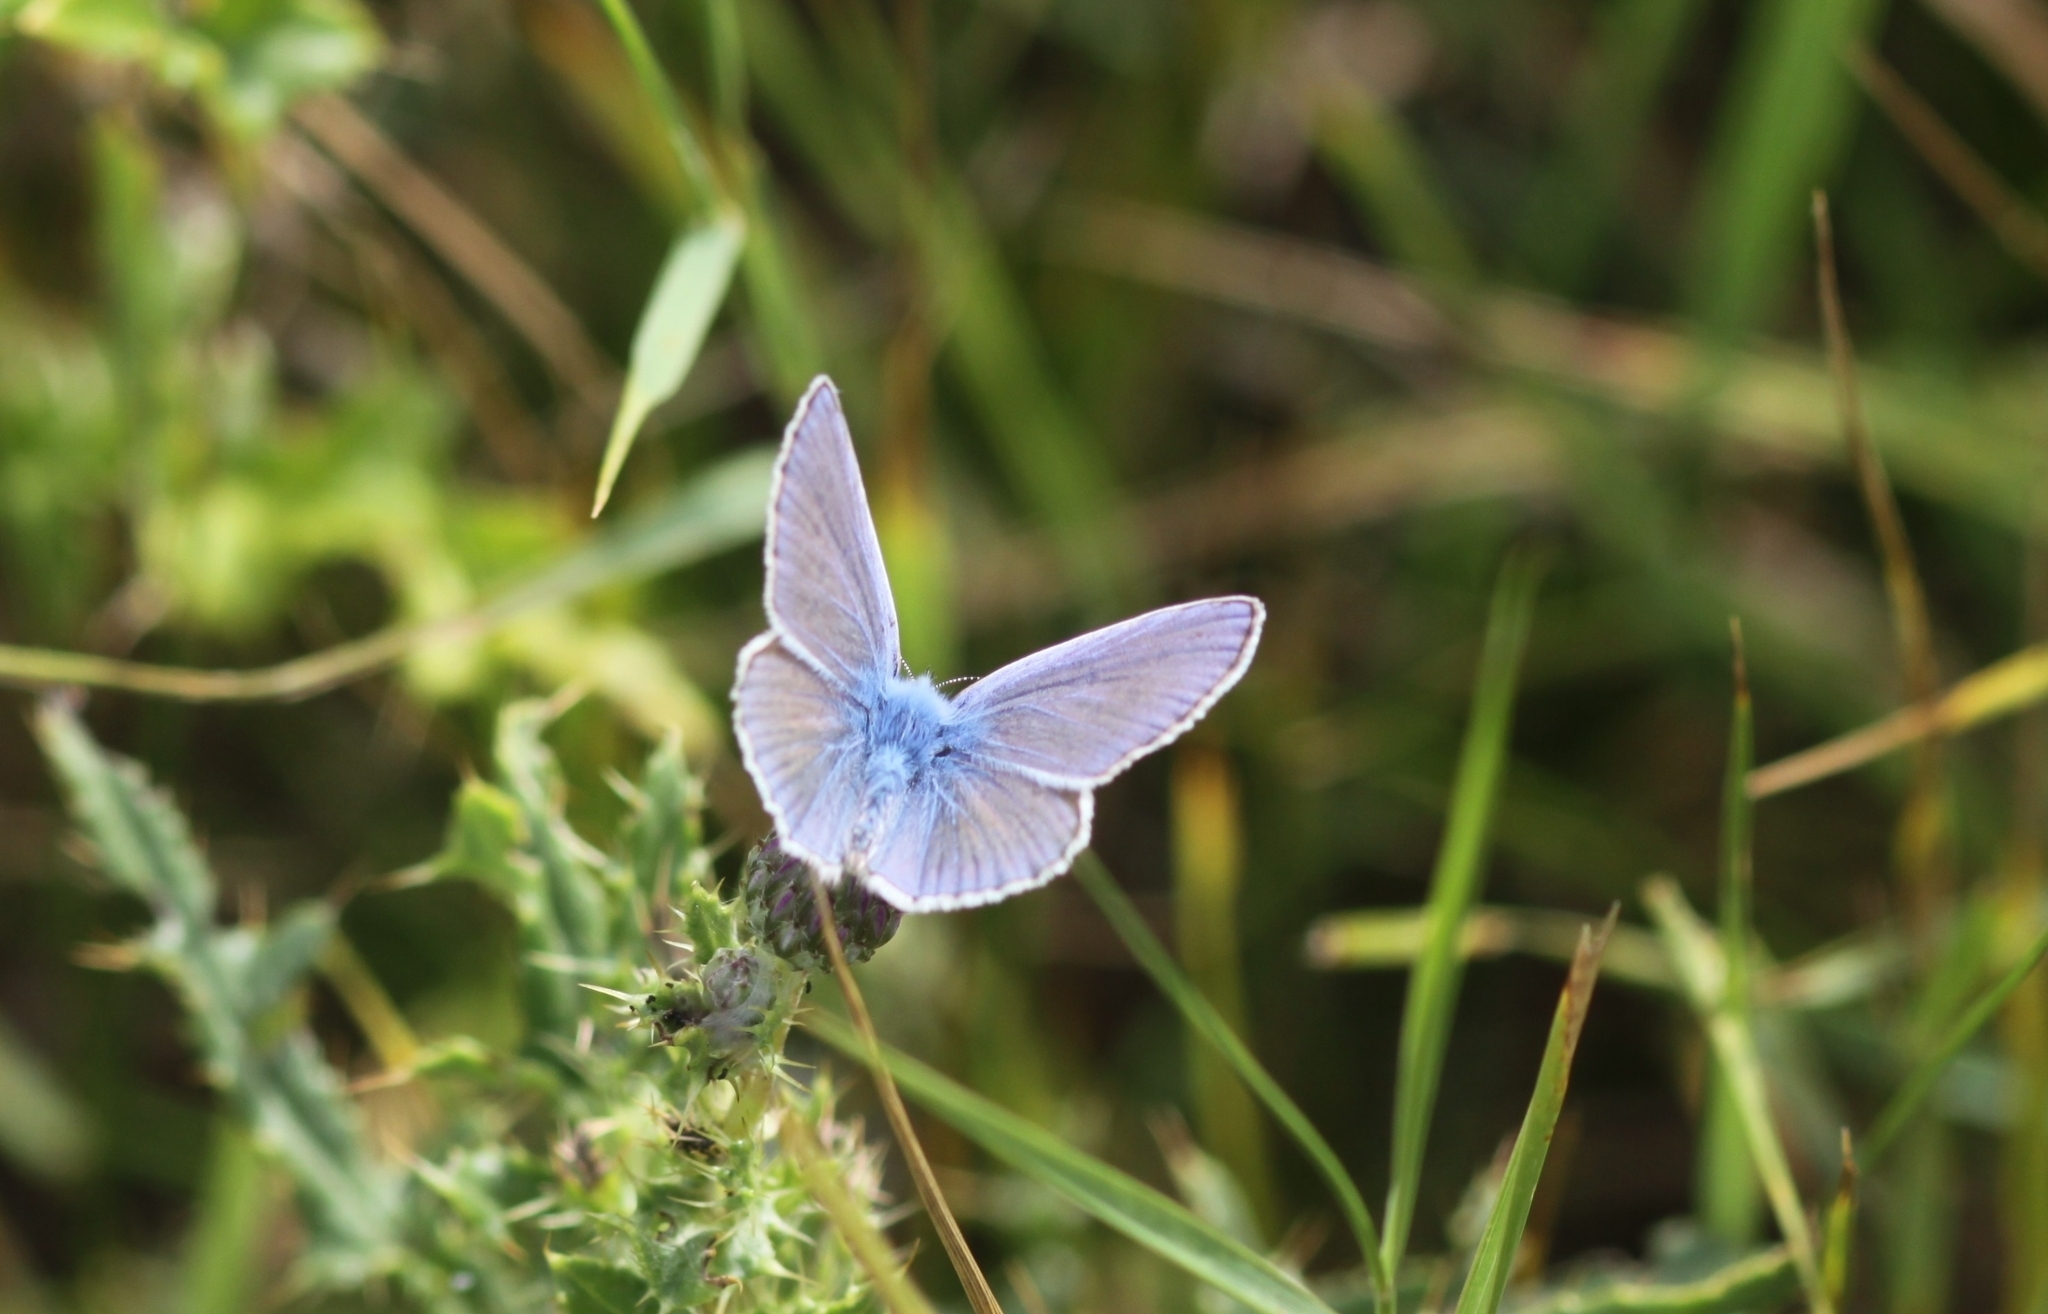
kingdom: Animalia
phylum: Arthropoda
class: Insecta
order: Lepidoptera
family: Lycaenidae
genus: Polyommatus
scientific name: Polyommatus icarus
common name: Common blue
